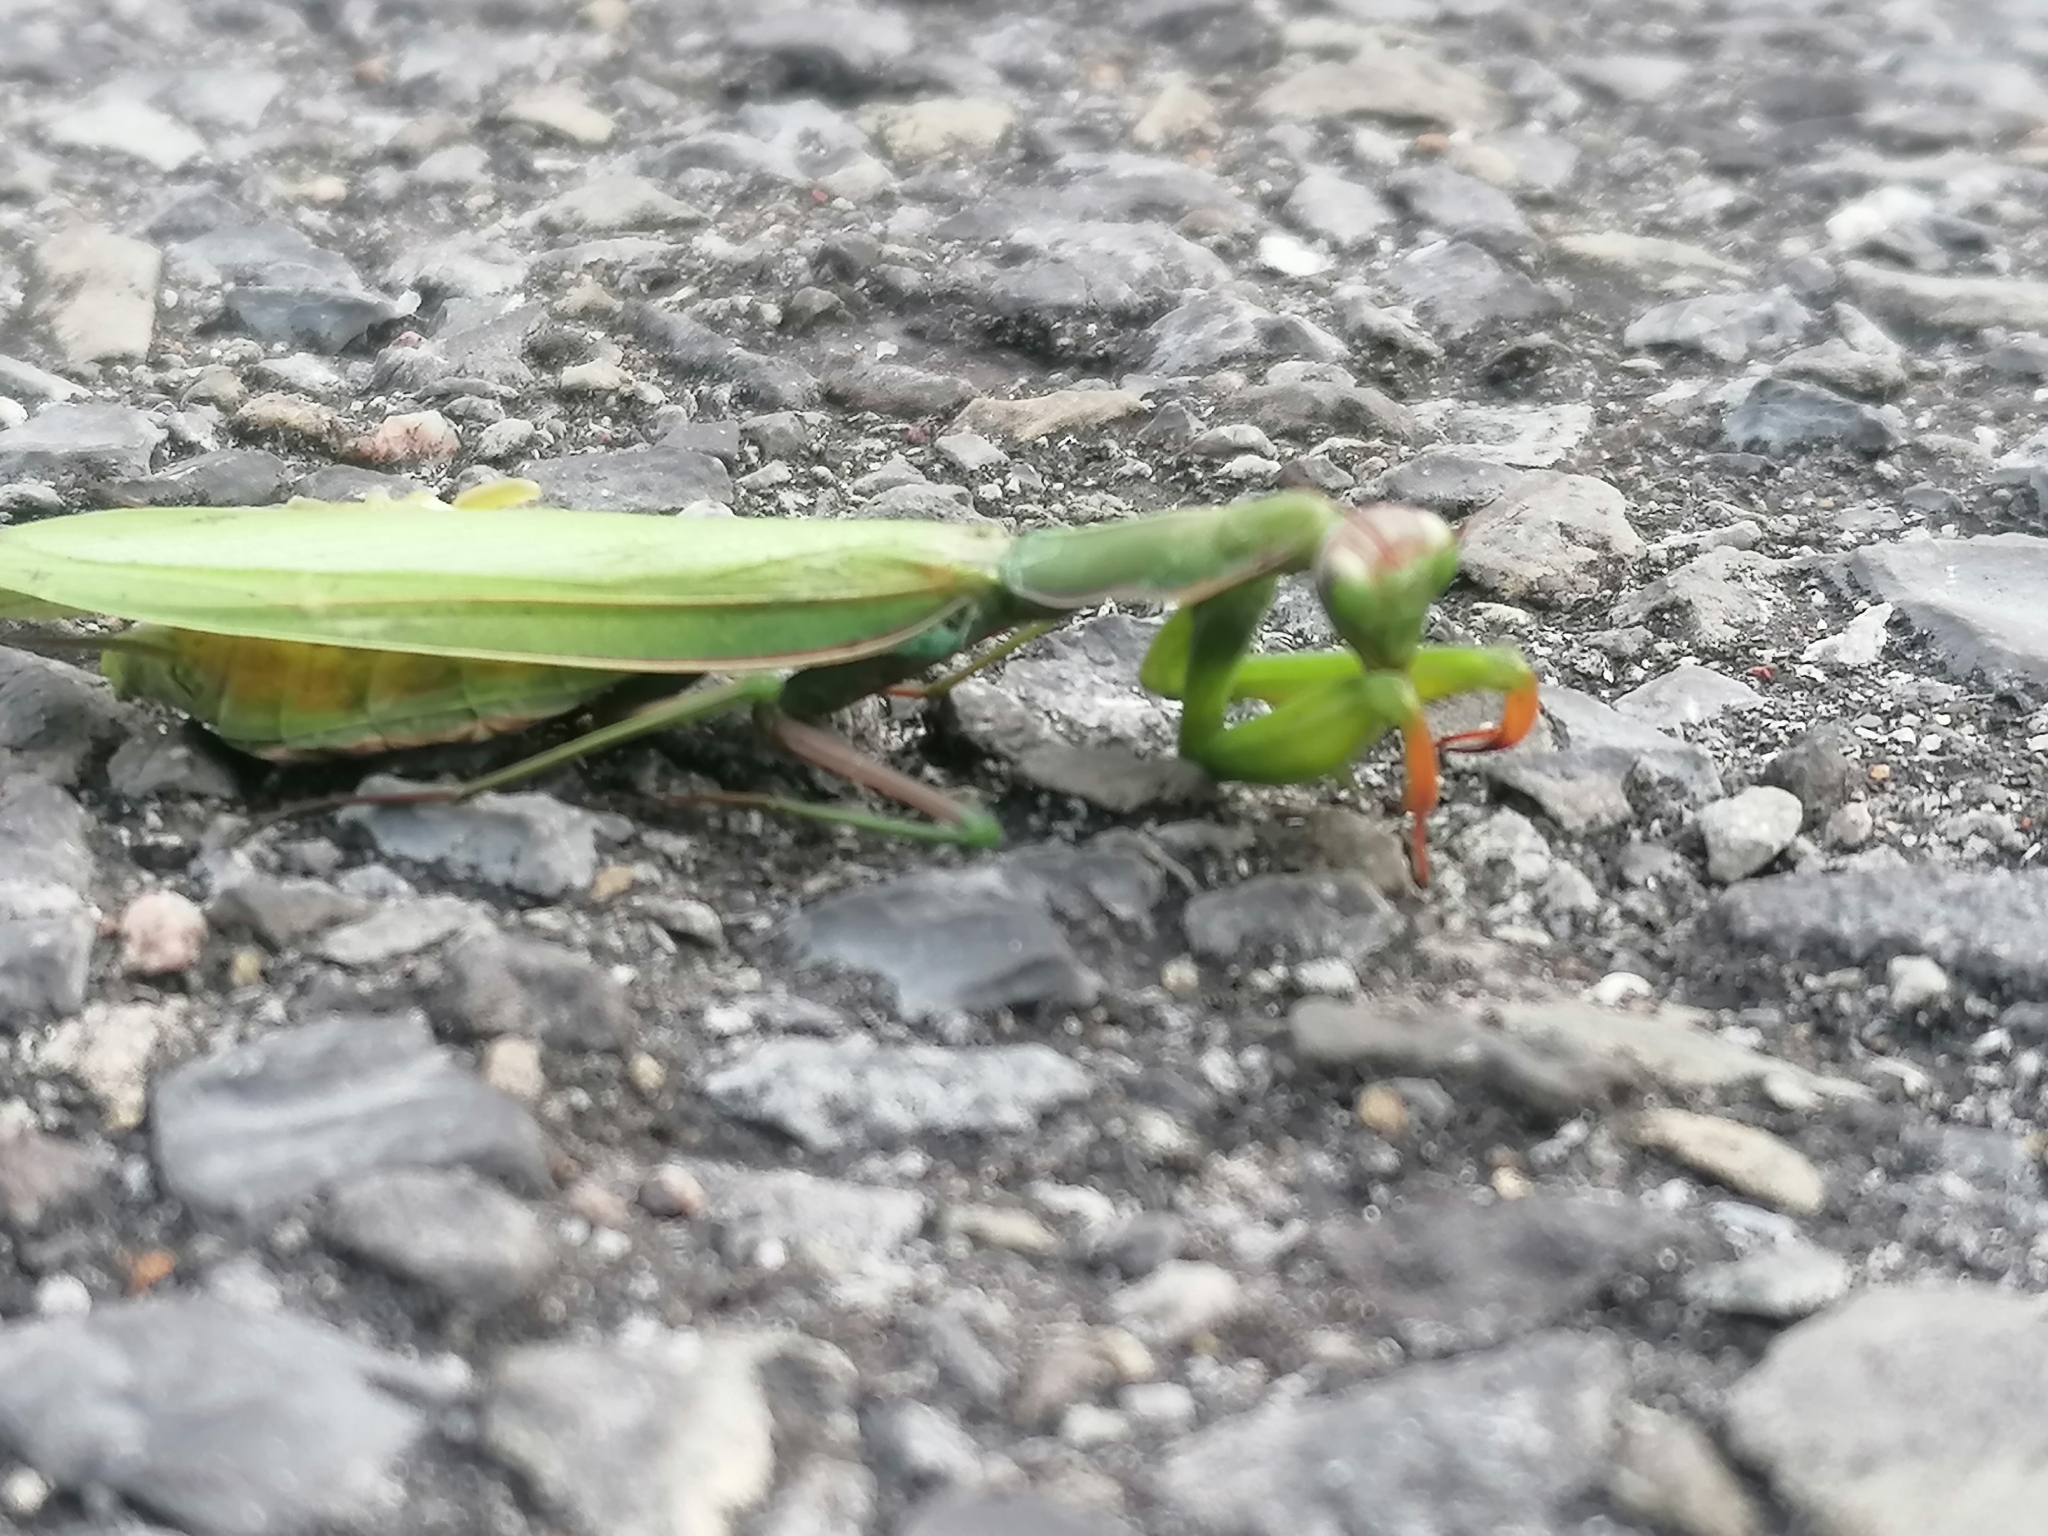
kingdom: Animalia
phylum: Arthropoda
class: Insecta
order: Mantodea
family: Mantidae
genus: Mantis
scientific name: Mantis religiosa
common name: Praying mantis
